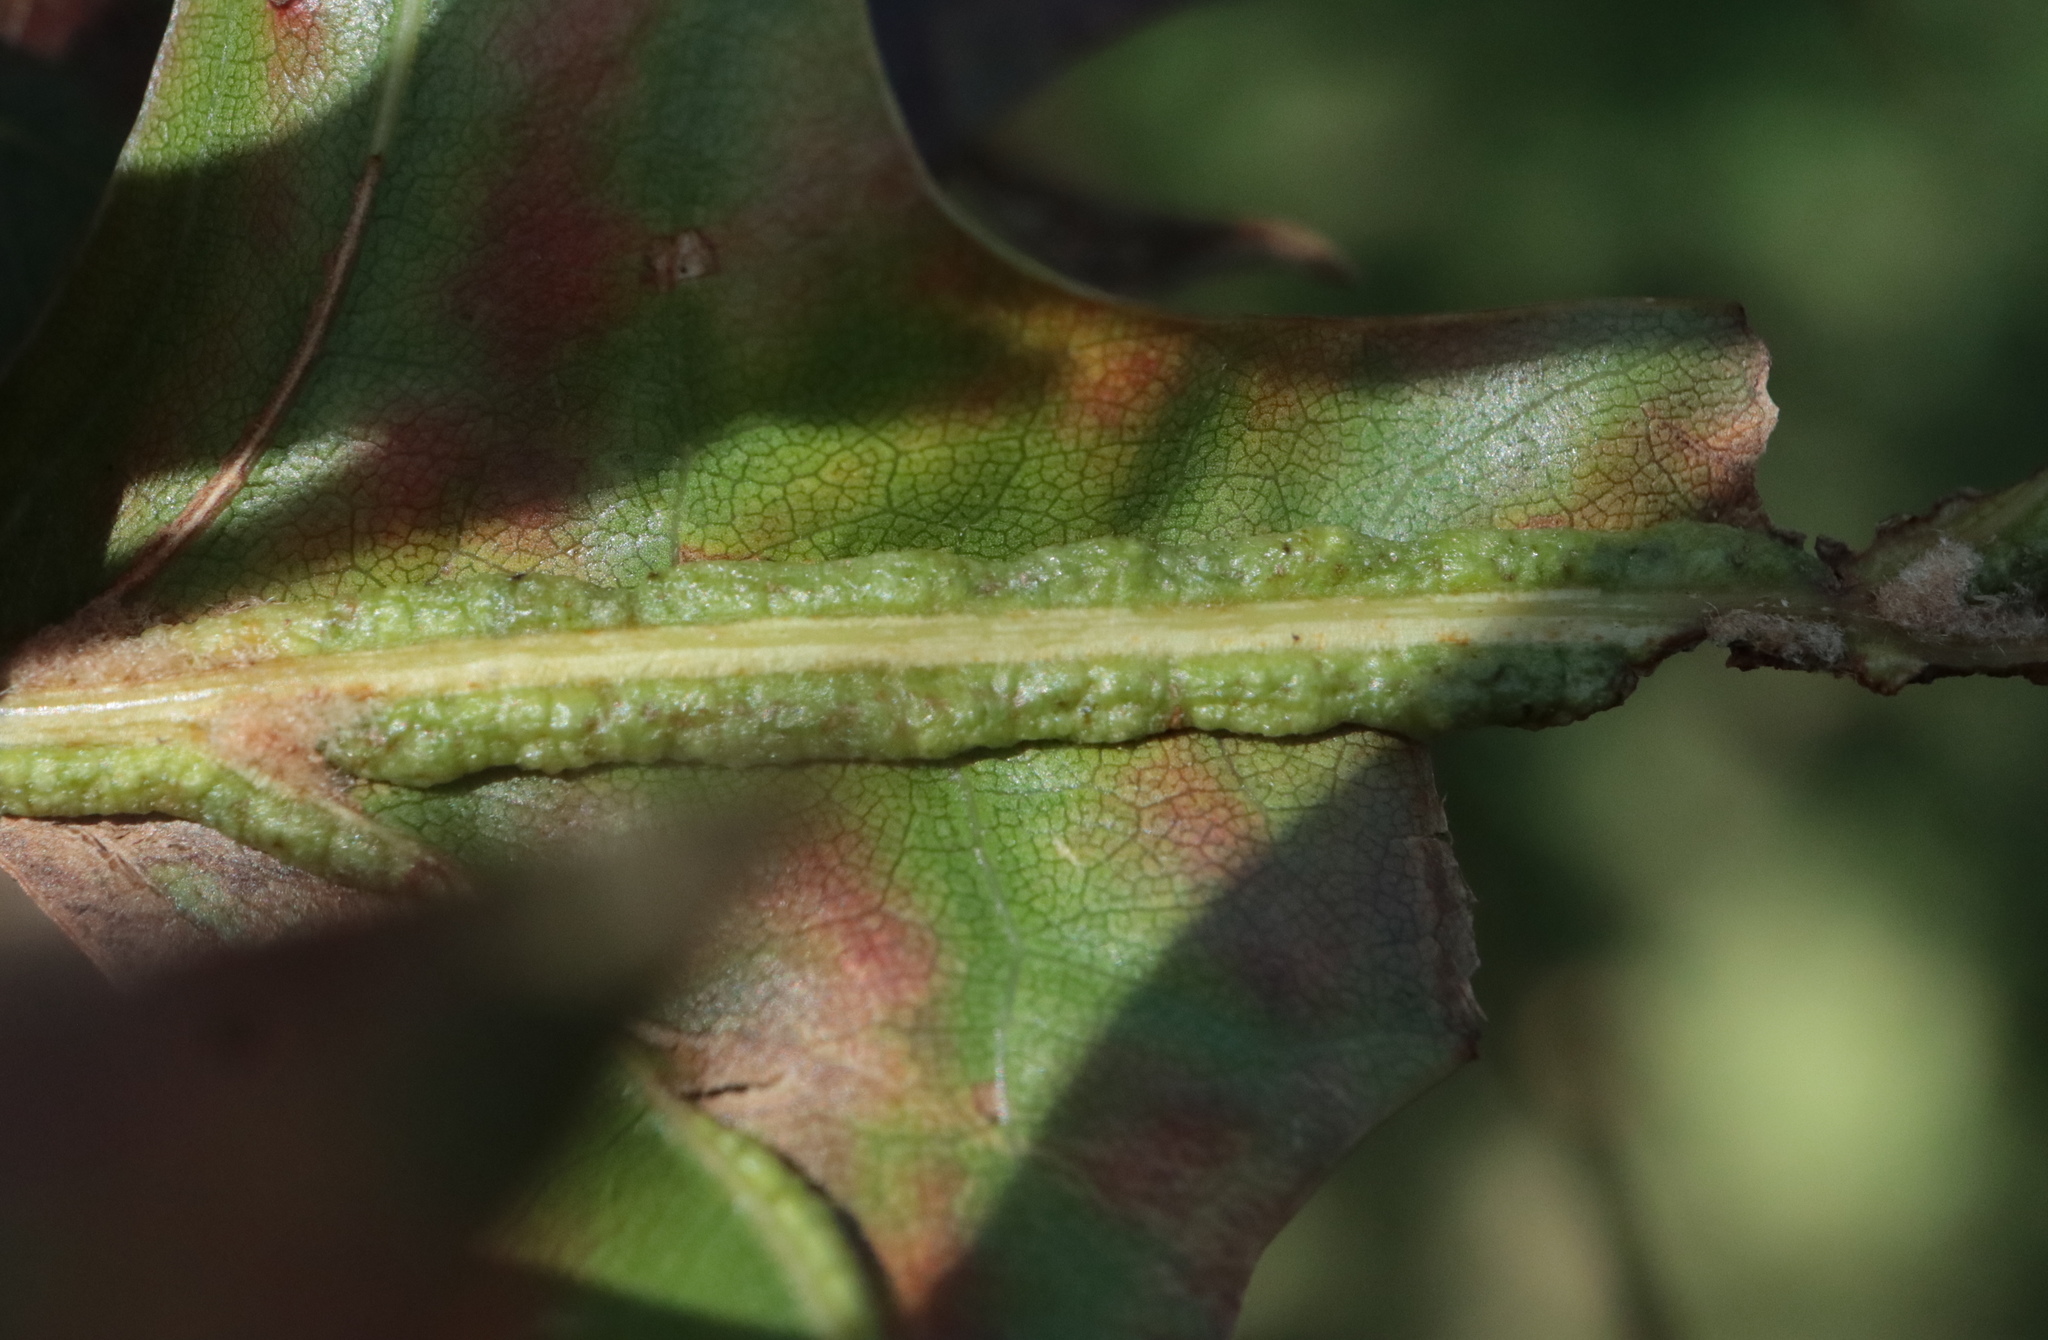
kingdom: Animalia
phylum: Arthropoda
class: Insecta
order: Diptera
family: Cecidomyiidae
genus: Macrodiplosis
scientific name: Macrodiplosis q-orucum
